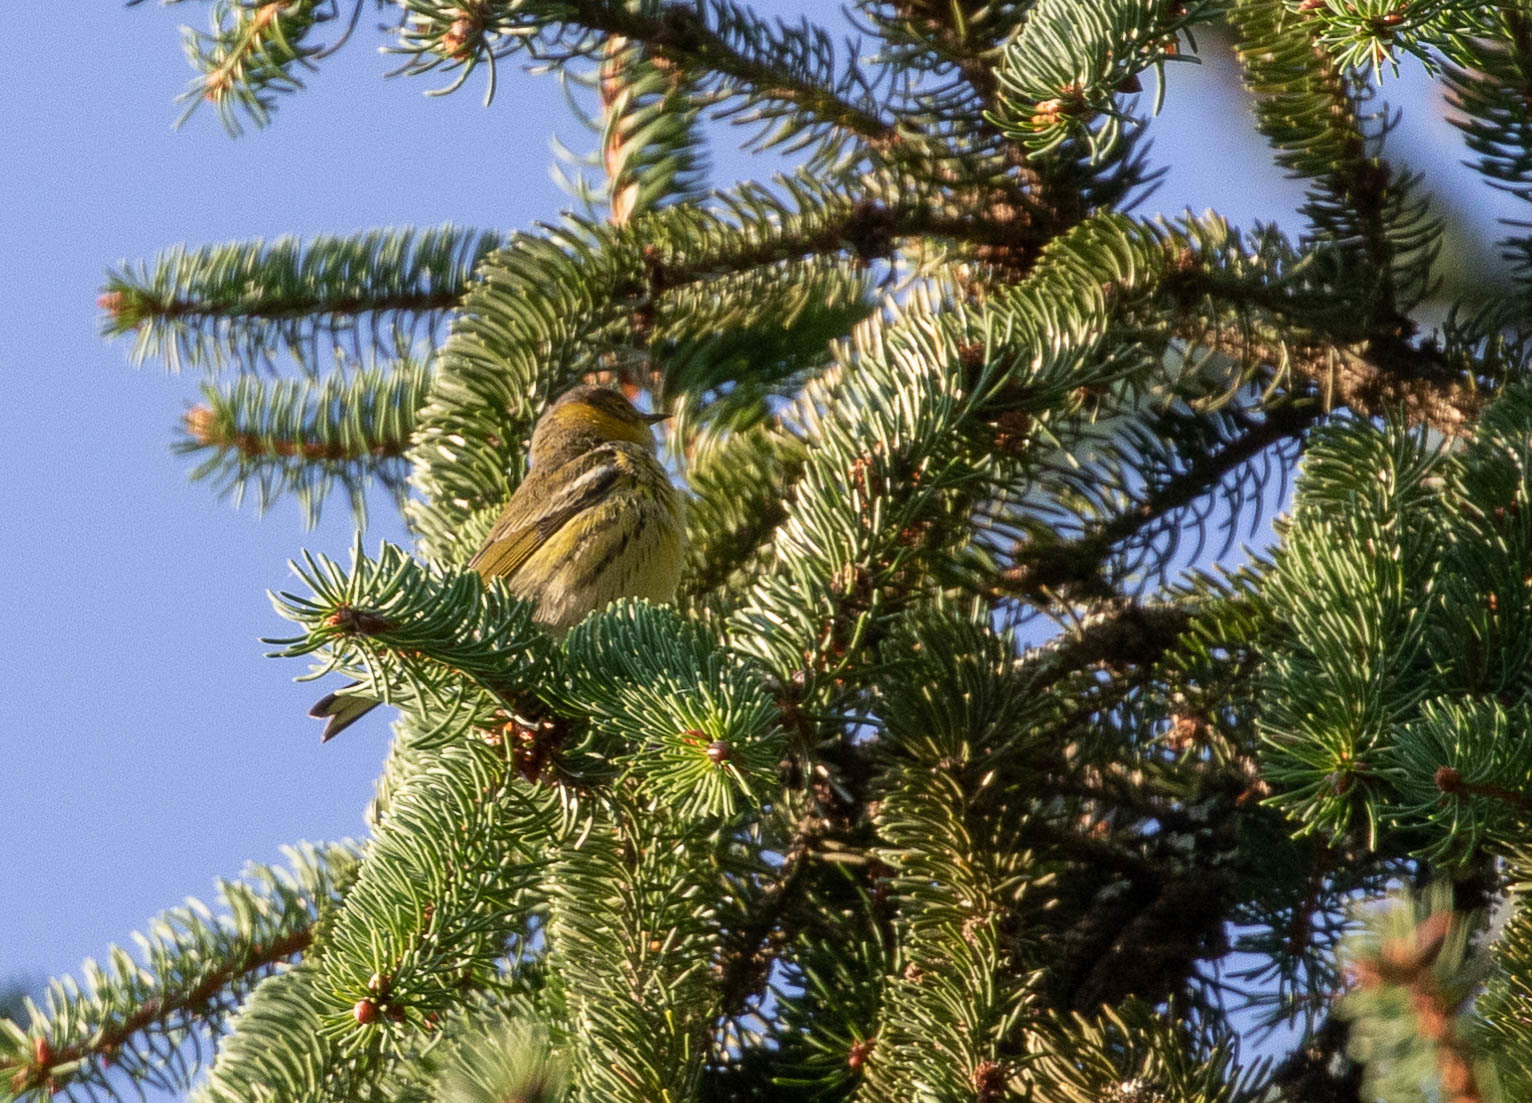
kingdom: Animalia
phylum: Chordata
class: Aves
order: Passeriformes
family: Parulidae
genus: Setophaga
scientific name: Setophaga tigrina
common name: Cape may warbler
